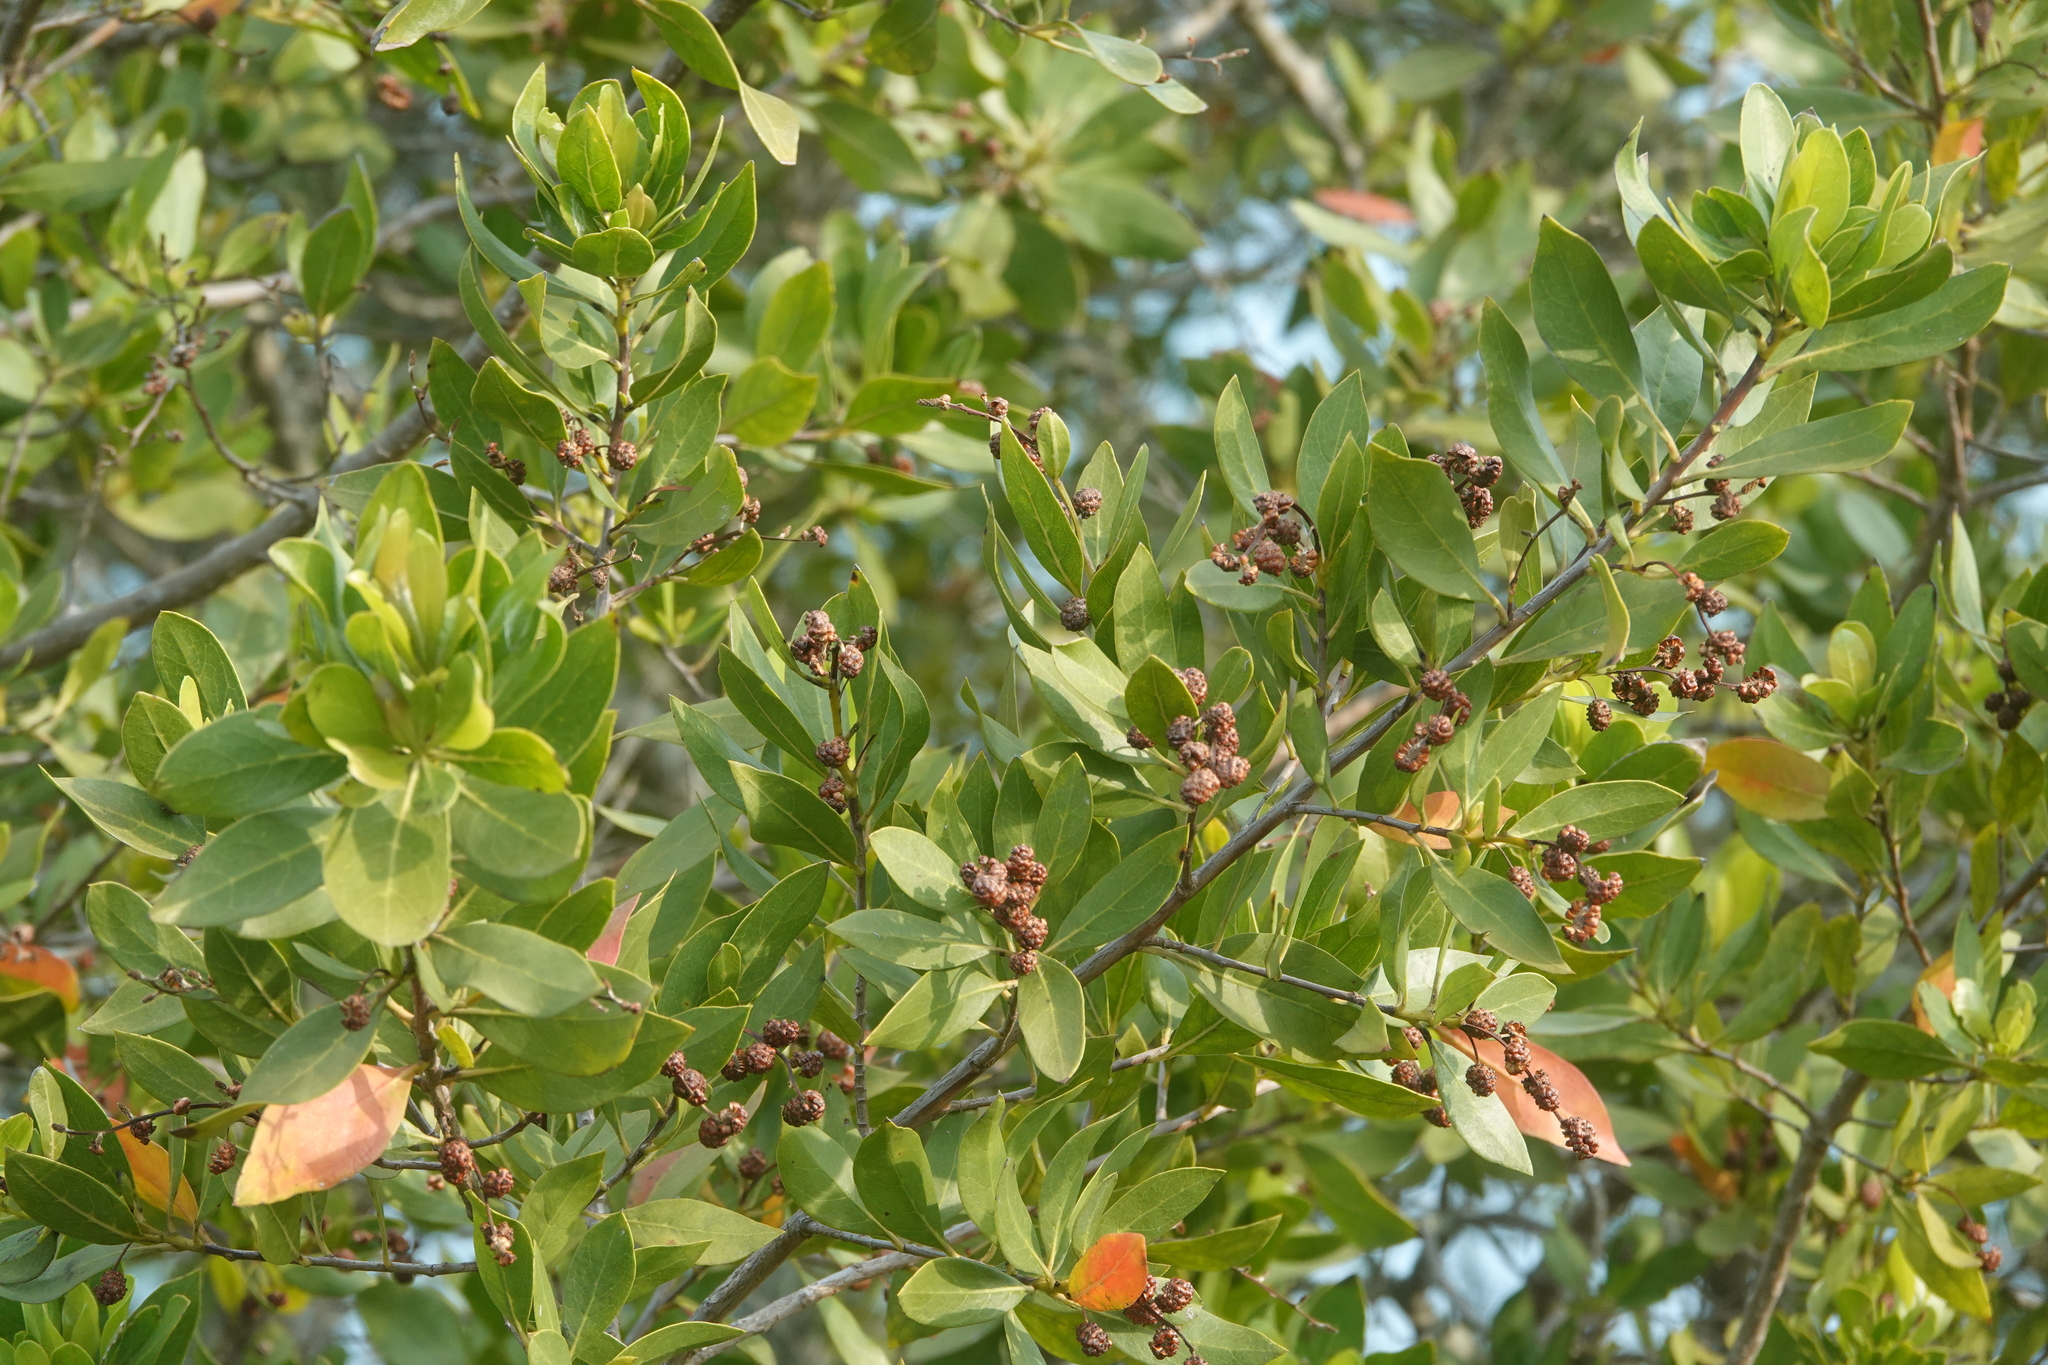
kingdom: Plantae
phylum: Tracheophyta
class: Magnoliopsida
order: Myrtales
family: Combretaceae
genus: Conocarpus
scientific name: Conocarpus erectus
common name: Button mangrove
